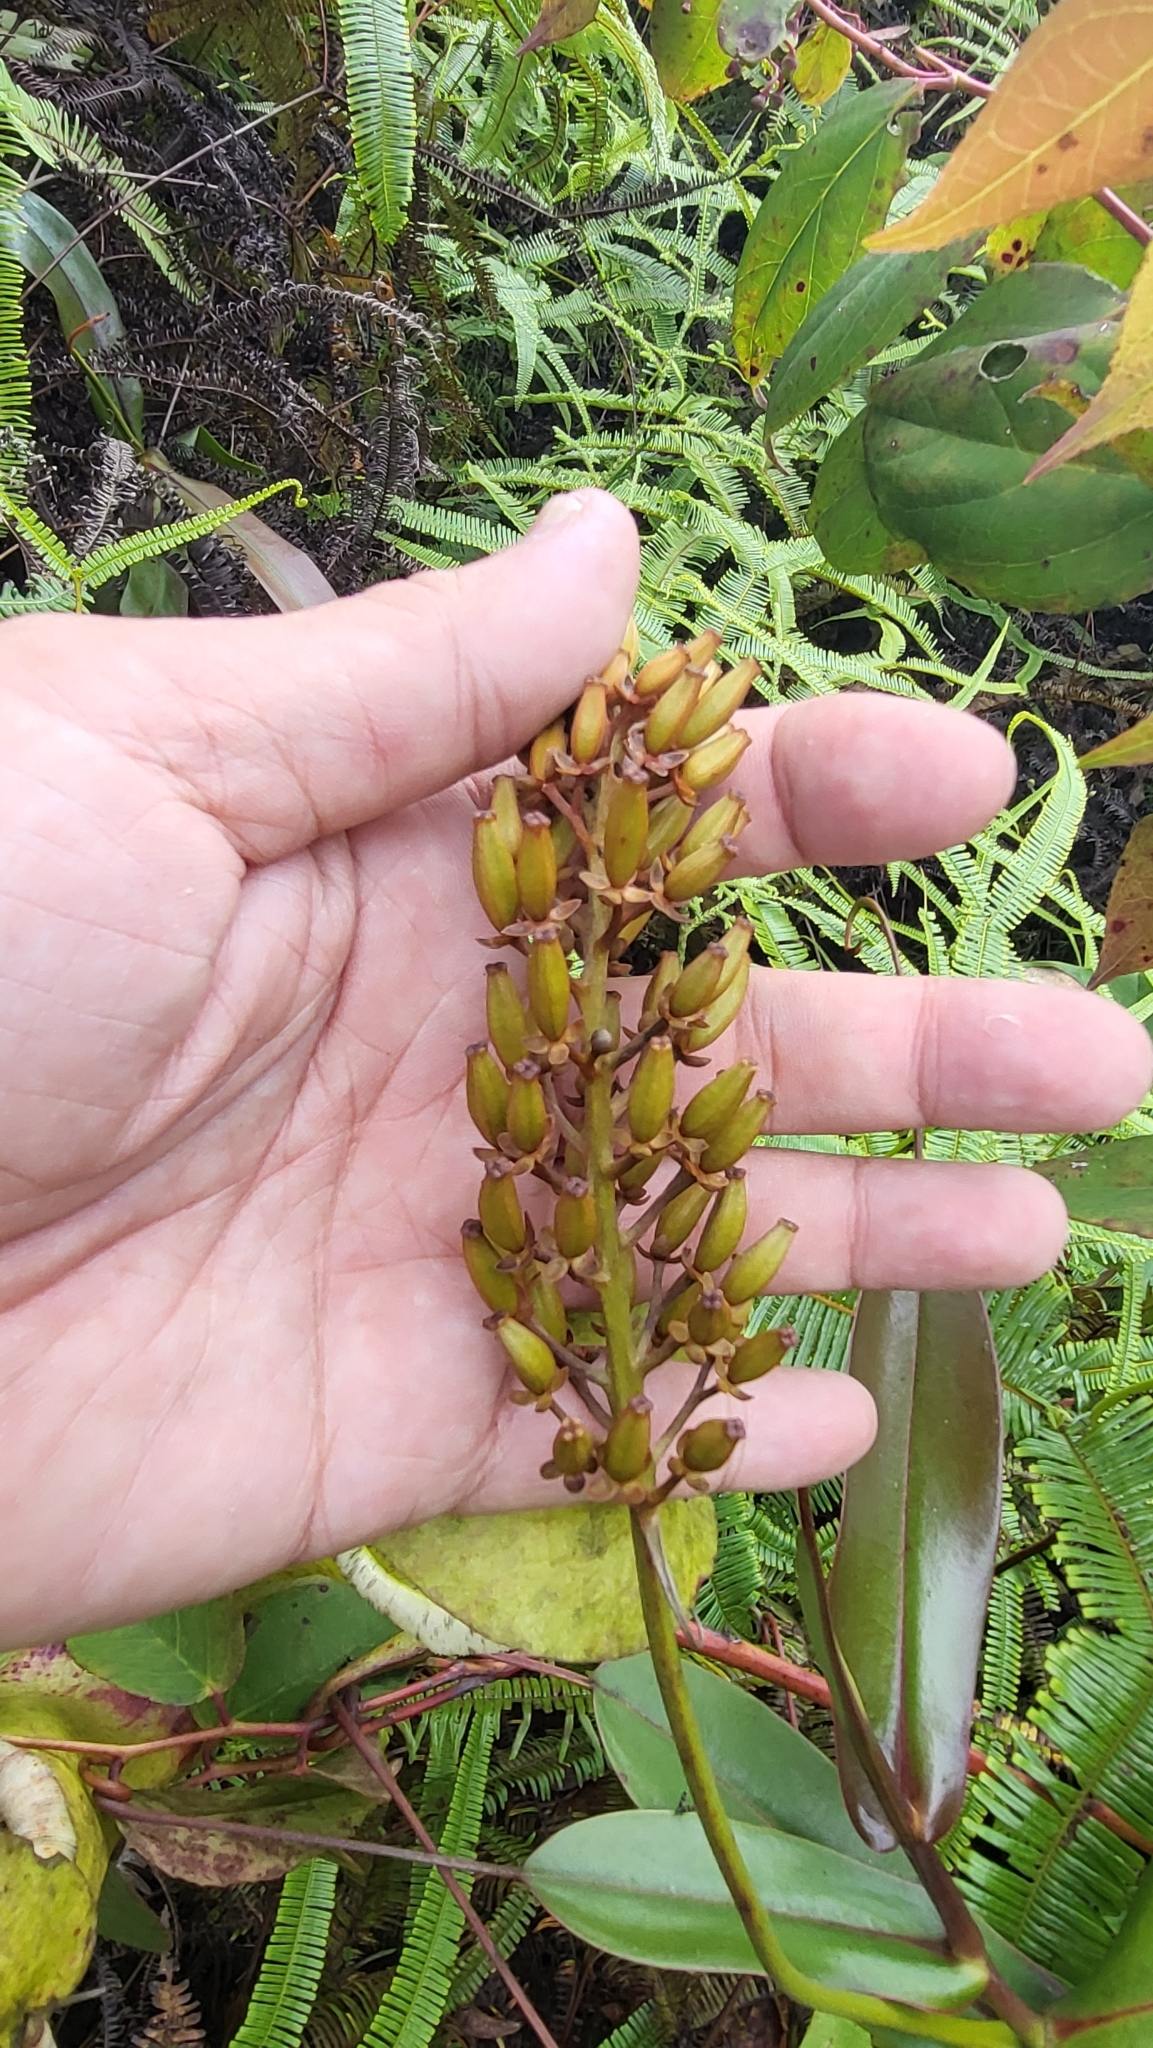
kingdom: Plantae
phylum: Tracheophyta
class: Magnoliopsida
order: Caryophyllales
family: Nepenthaceae
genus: Nepenthes
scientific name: Nepenthes sanguinea
